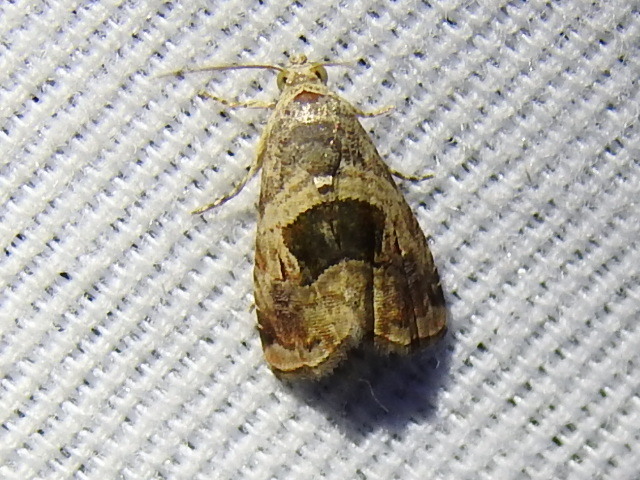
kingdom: Animalia
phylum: Arthropoda
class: Insecta
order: Lepidoptera
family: Noctuidae
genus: Tripudia
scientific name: Tripudia quadrifera
